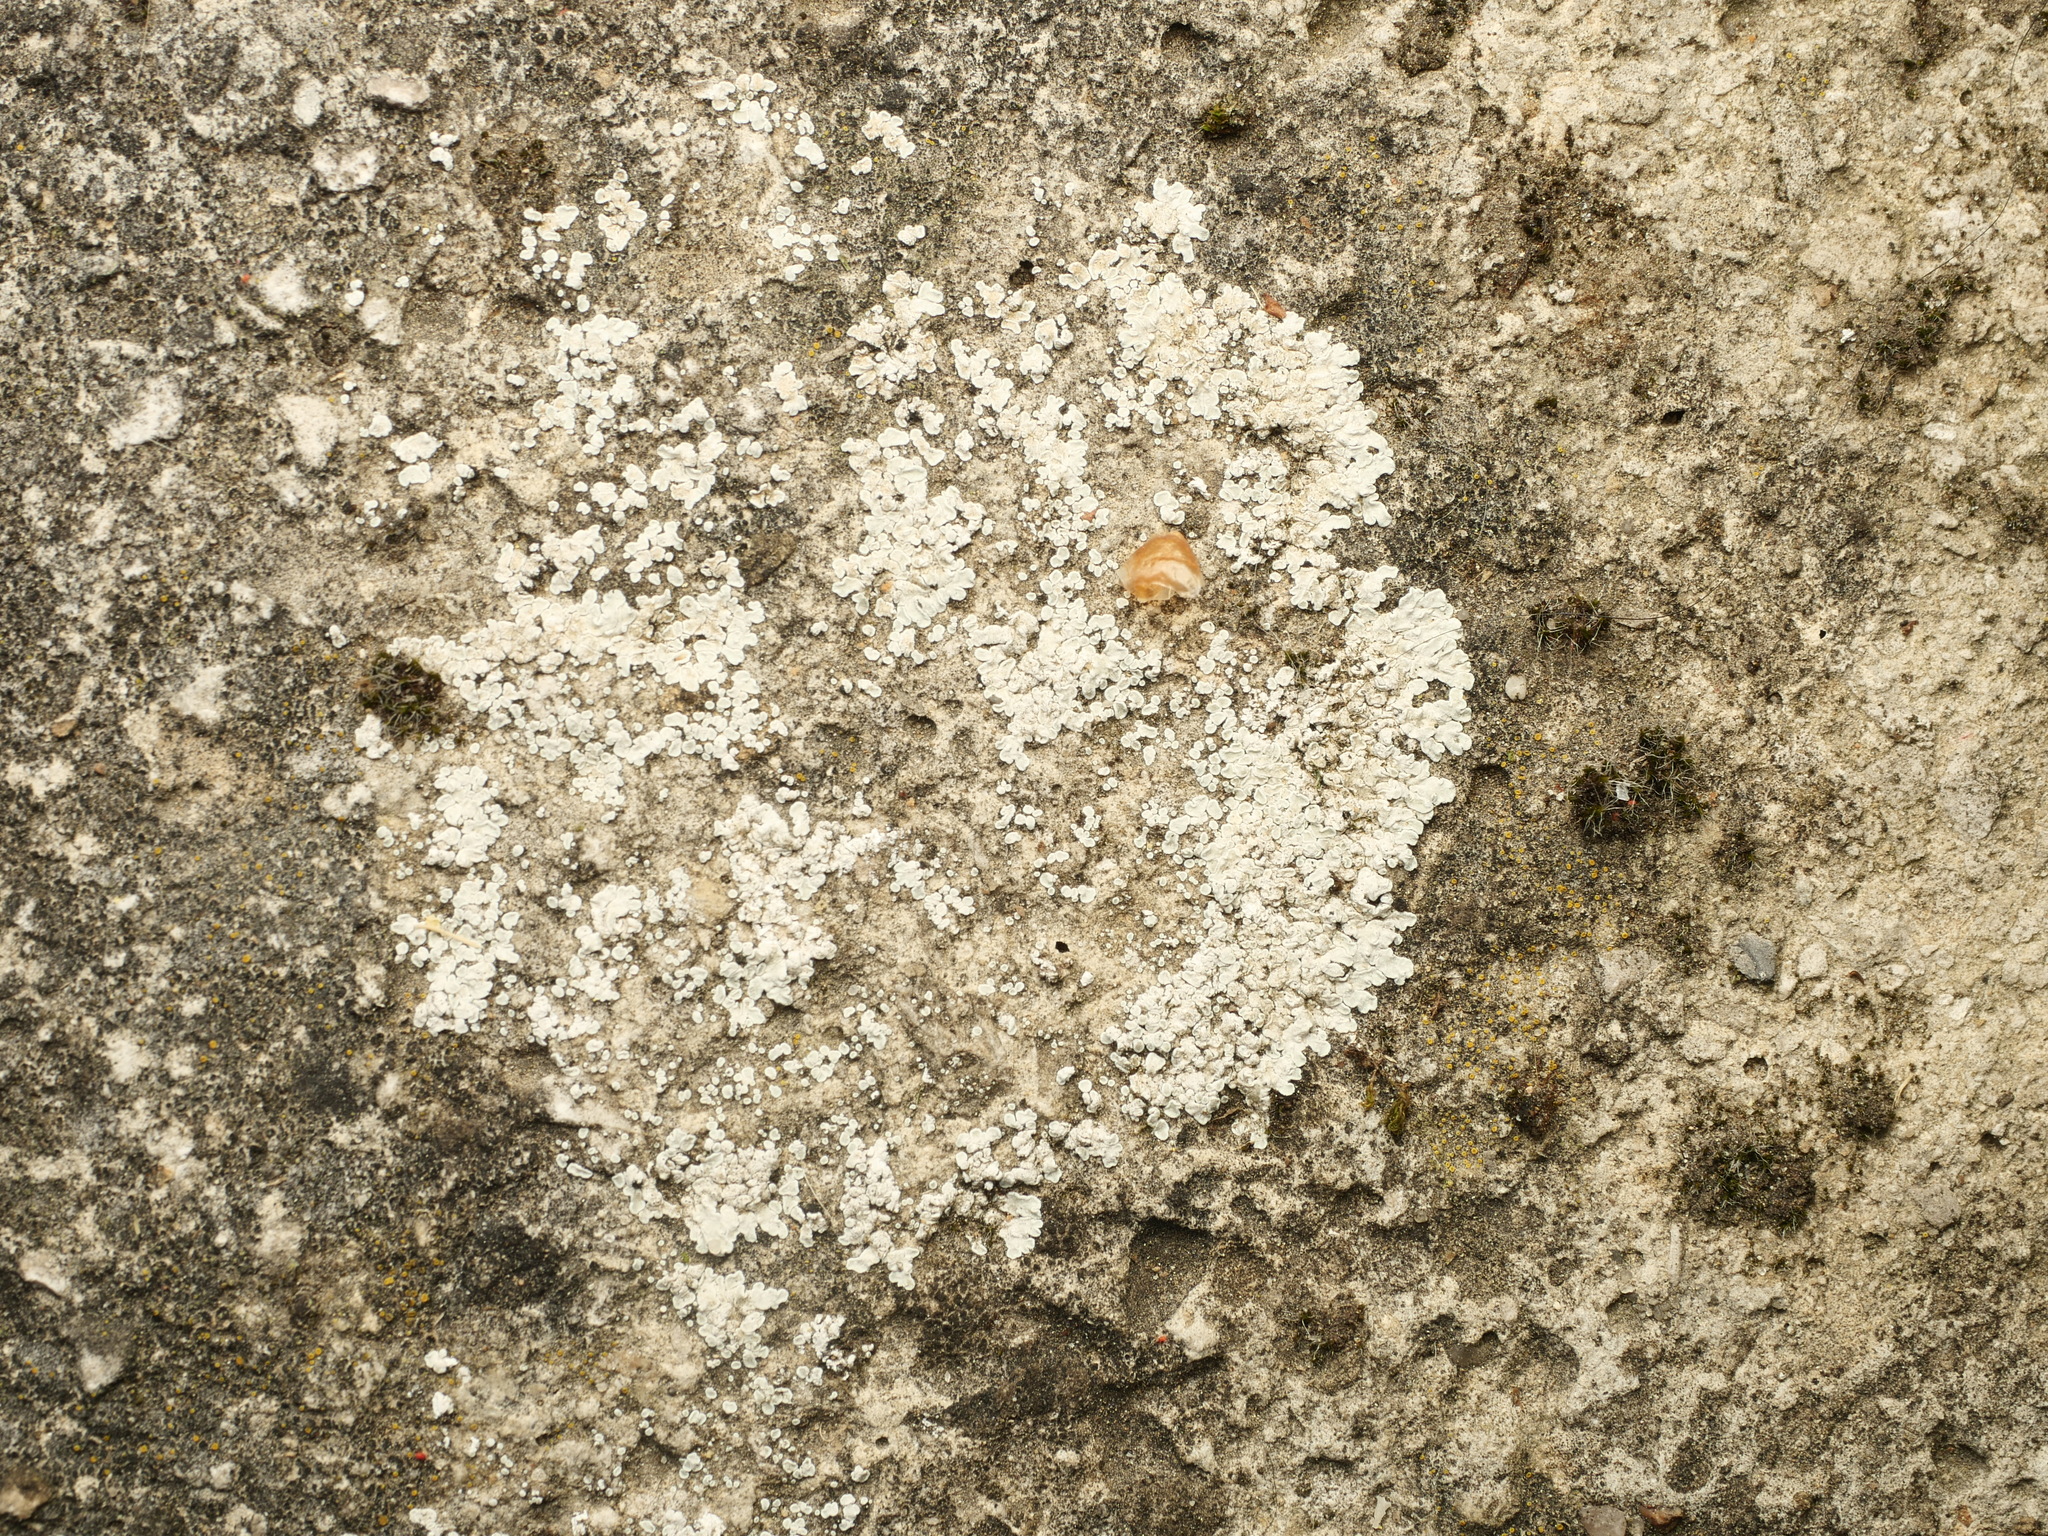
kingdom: Fungi
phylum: Ascomycota
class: Lecanoromycetes
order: Lecanorales
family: Lecanoraceae
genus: Protoparmeliopsis
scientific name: Protoparmeliopsis muralis
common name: Stonewall rim lichen
